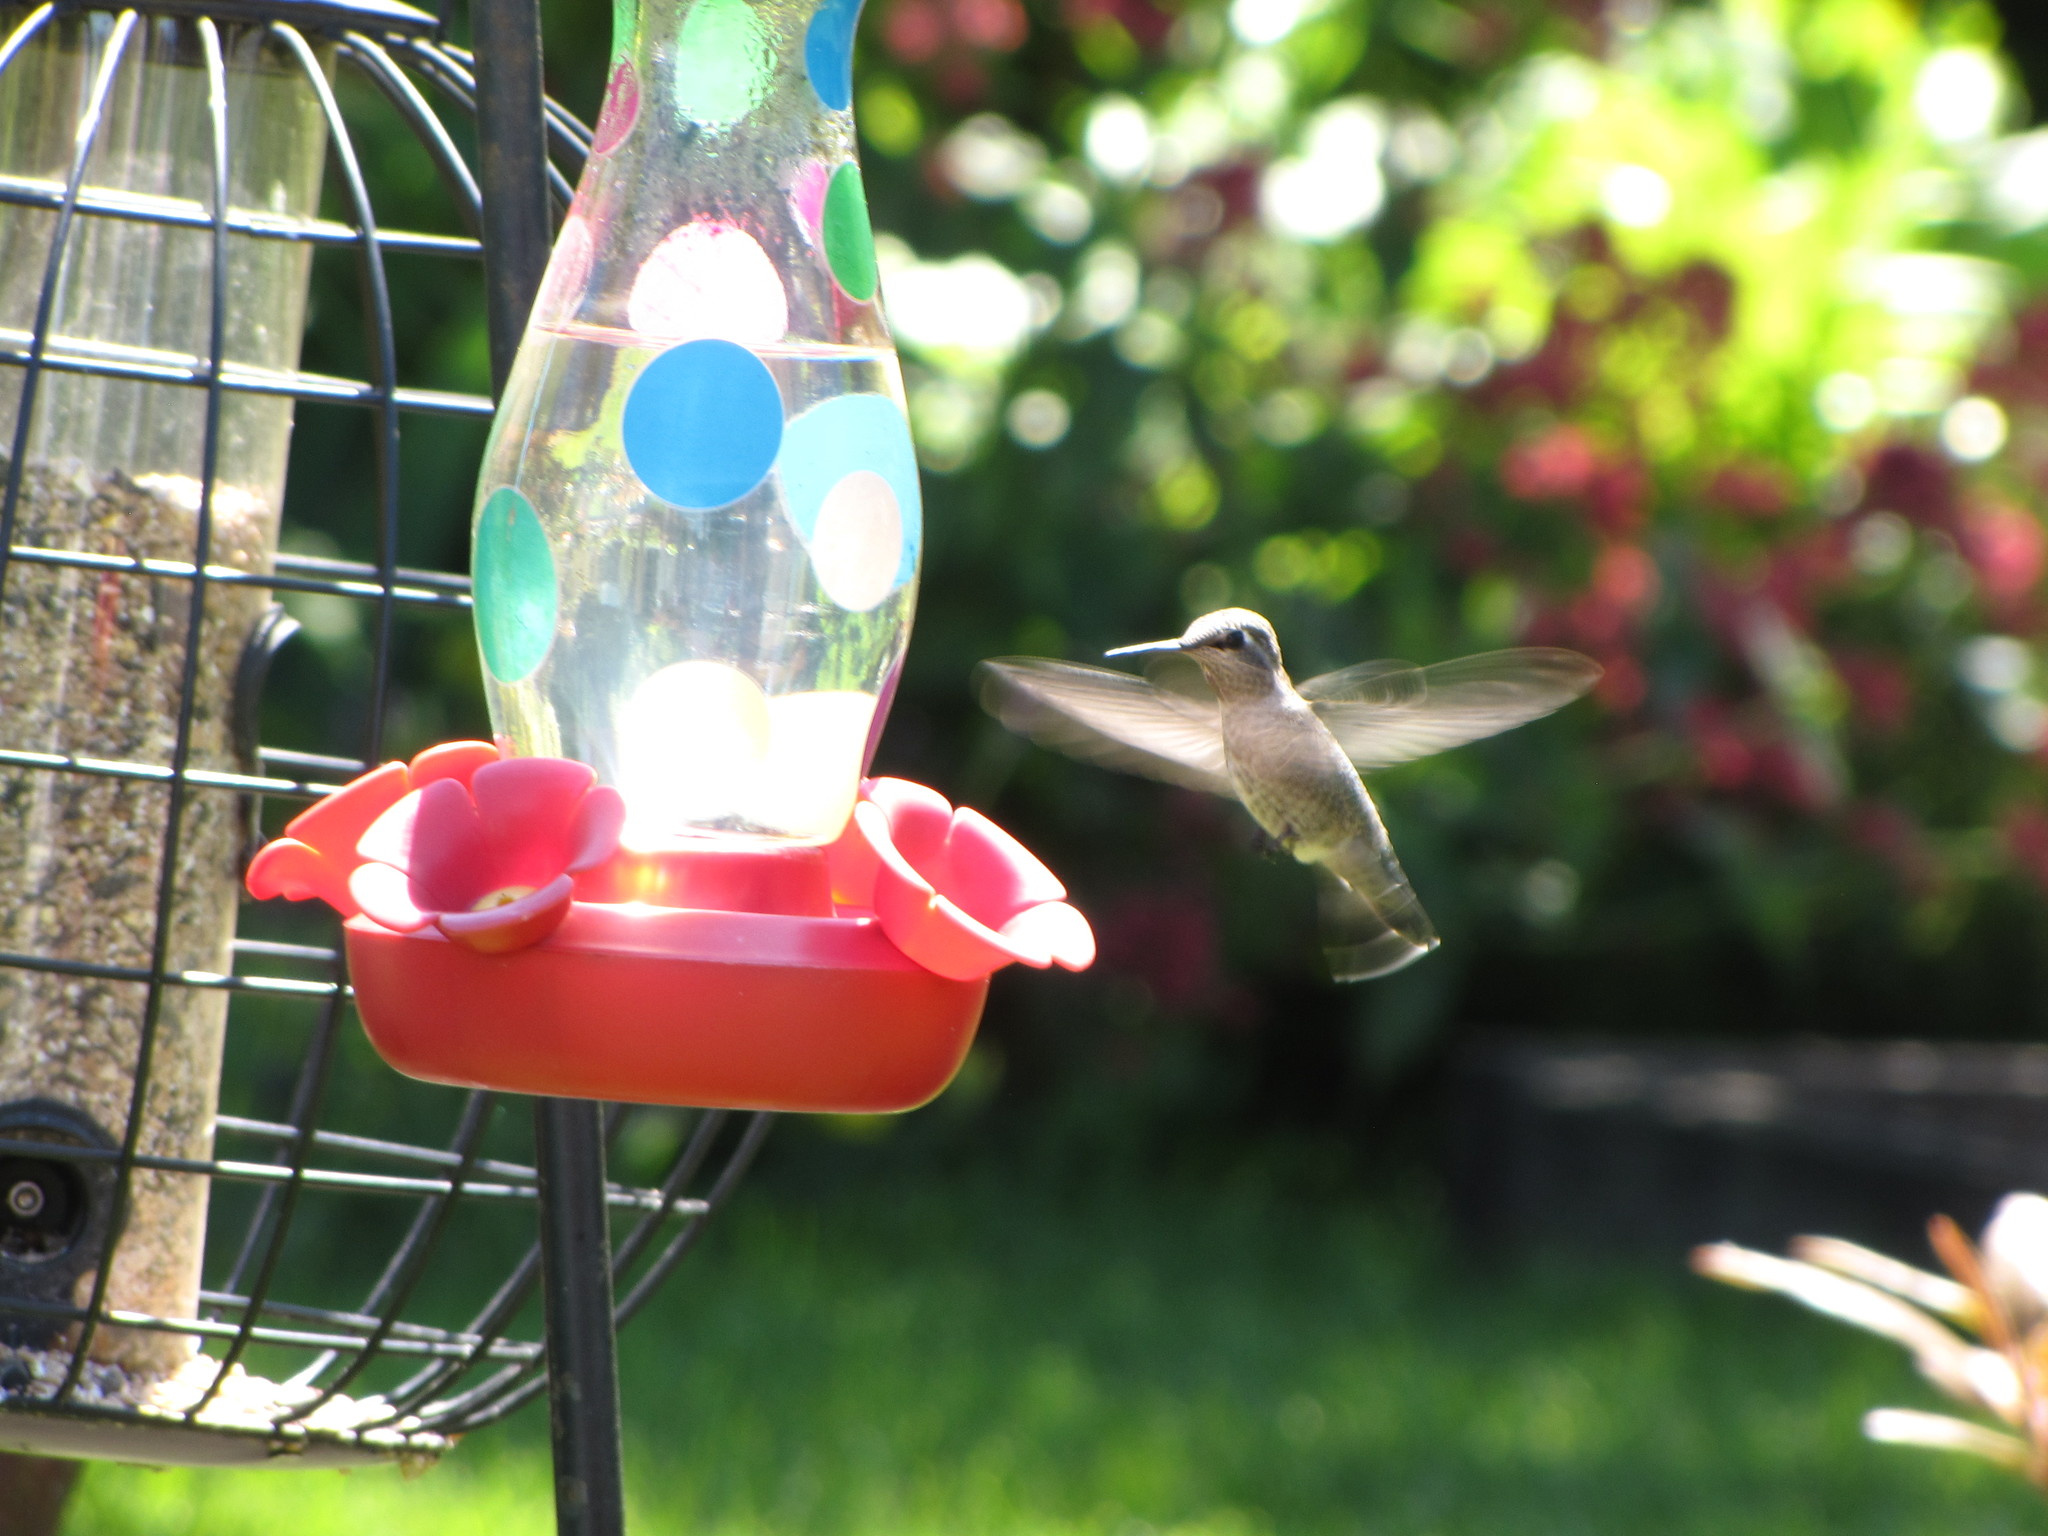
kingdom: Animalia
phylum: Chordata
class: Aves
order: Apodiformes
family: Trochilidae
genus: Calypte
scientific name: Calypte anna
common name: Anna's hummingbird
